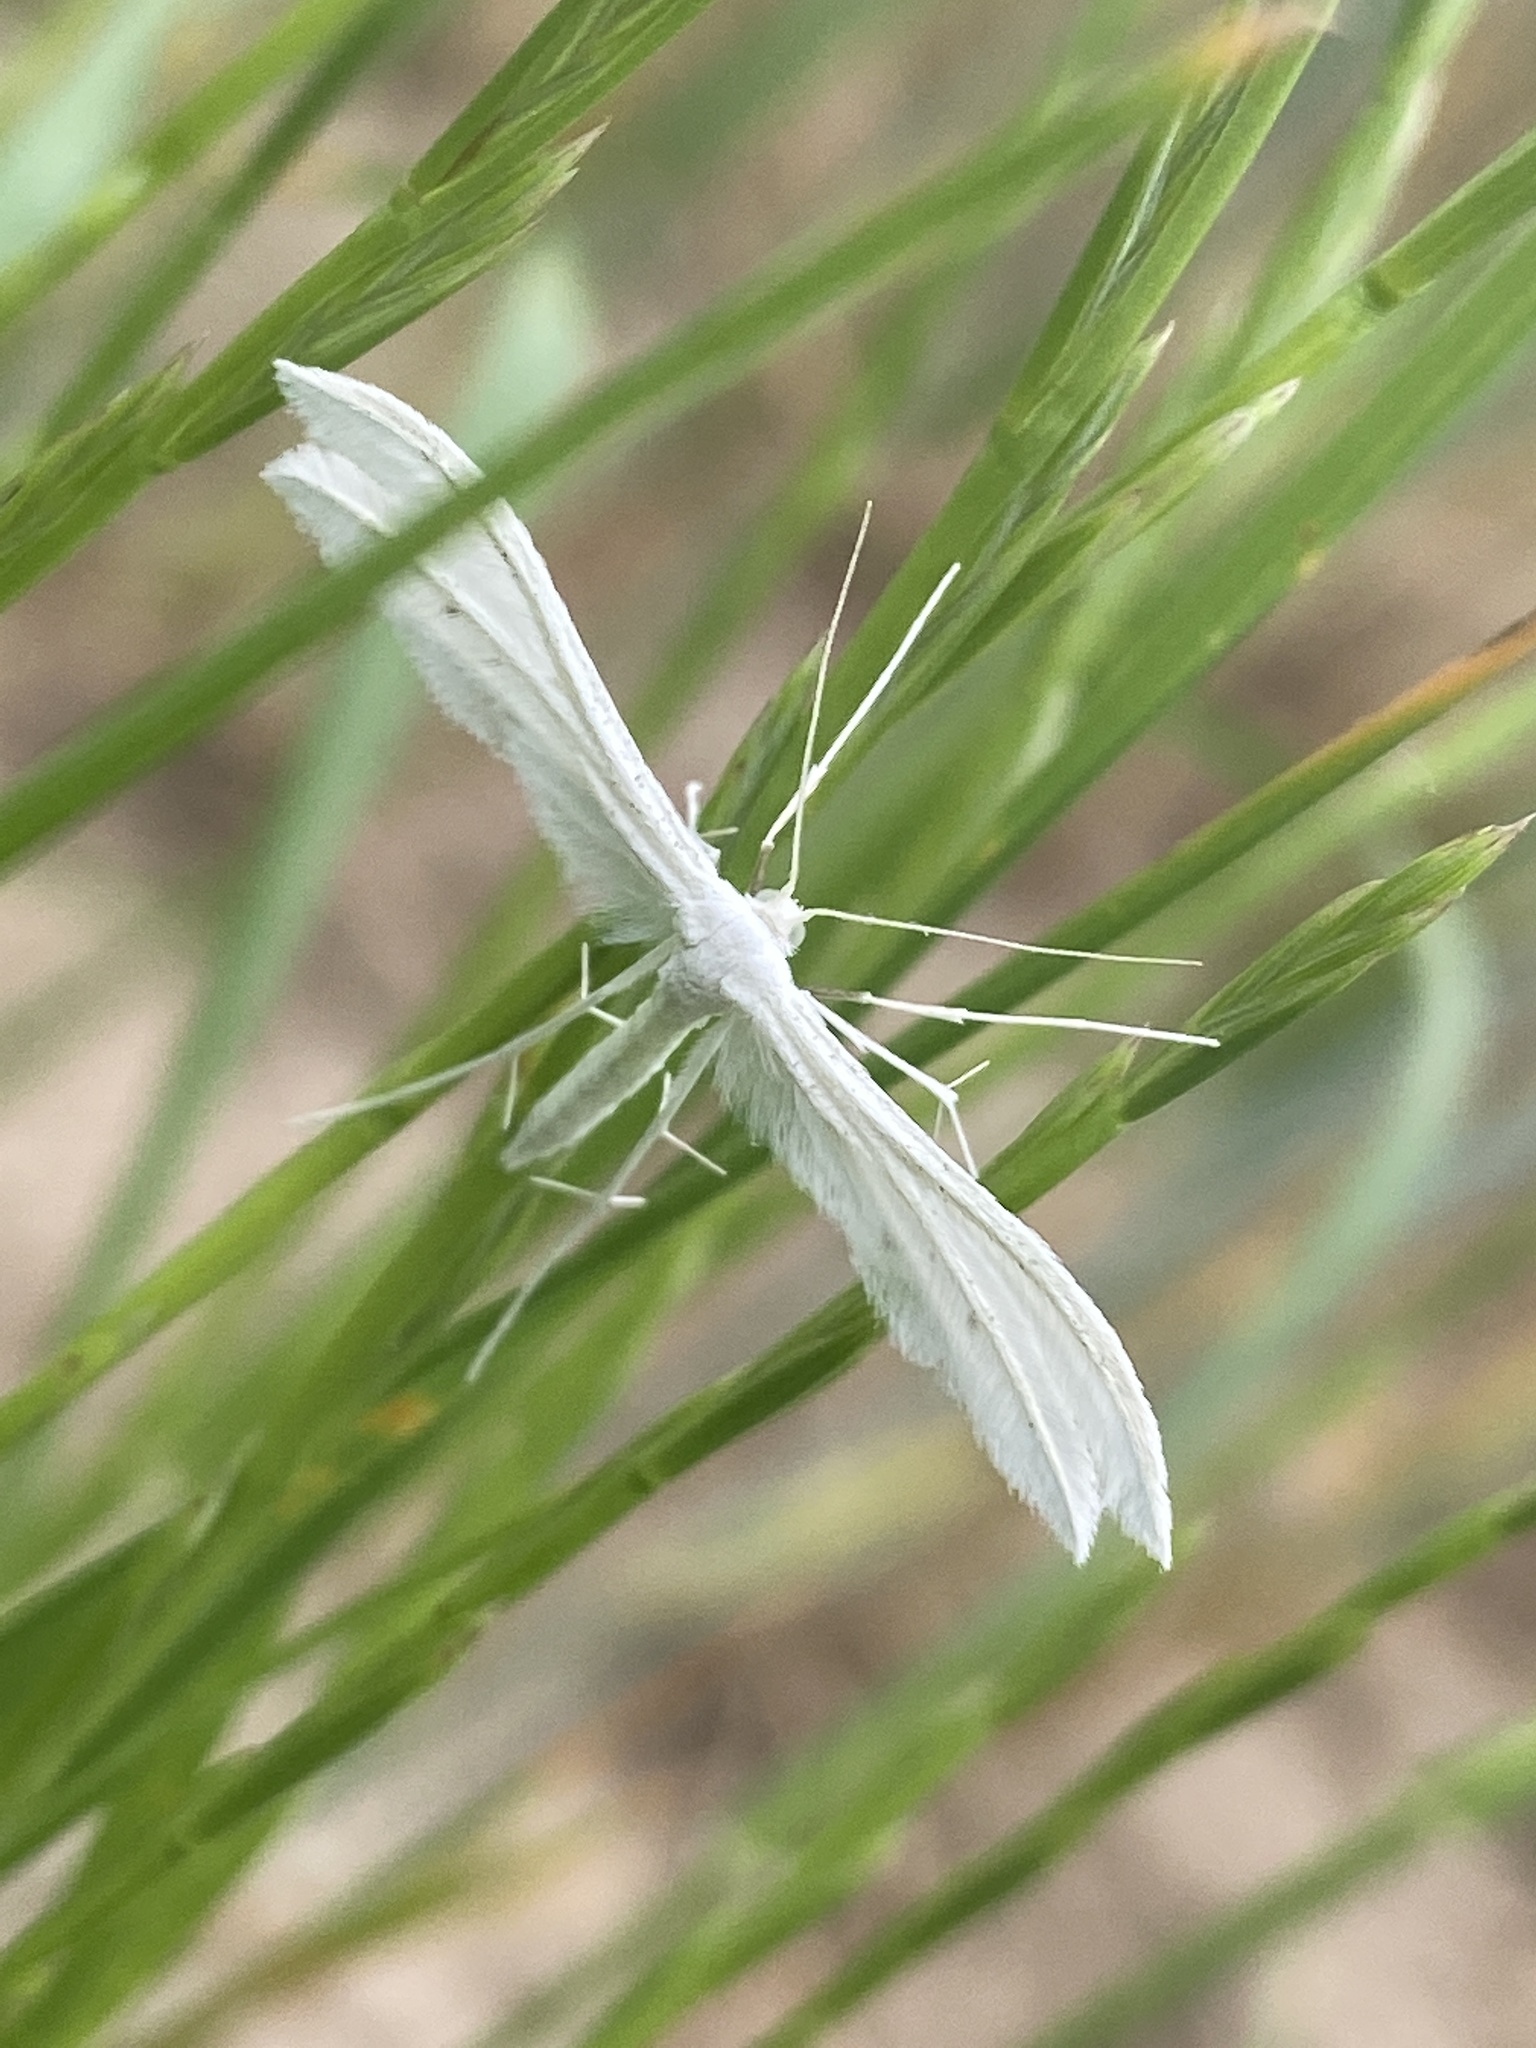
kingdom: Animalia
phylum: Arthropoda
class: Insecta
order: Lepidoptera
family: Pterophoridae
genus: Pterophorus
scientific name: Pterophorus pentadactyla
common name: White plume moth
